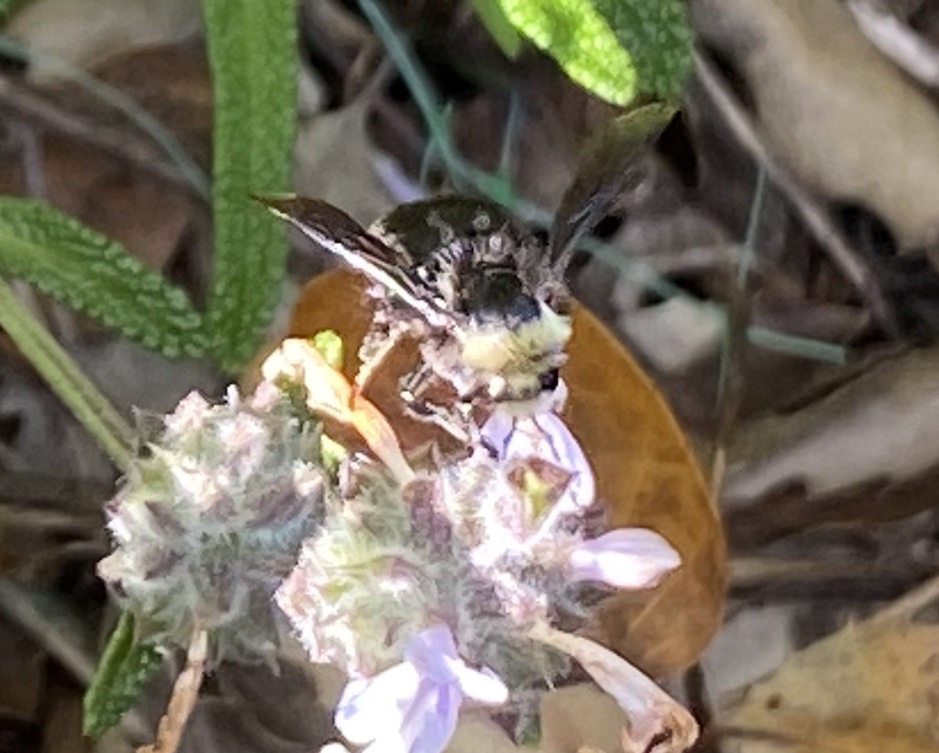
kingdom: Animalia
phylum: Arthropoda
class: Insecta
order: Hymenoptera
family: Apidae
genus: Bombus
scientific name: Bombus vosnesenskii
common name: Vosnesensky bumble bee
